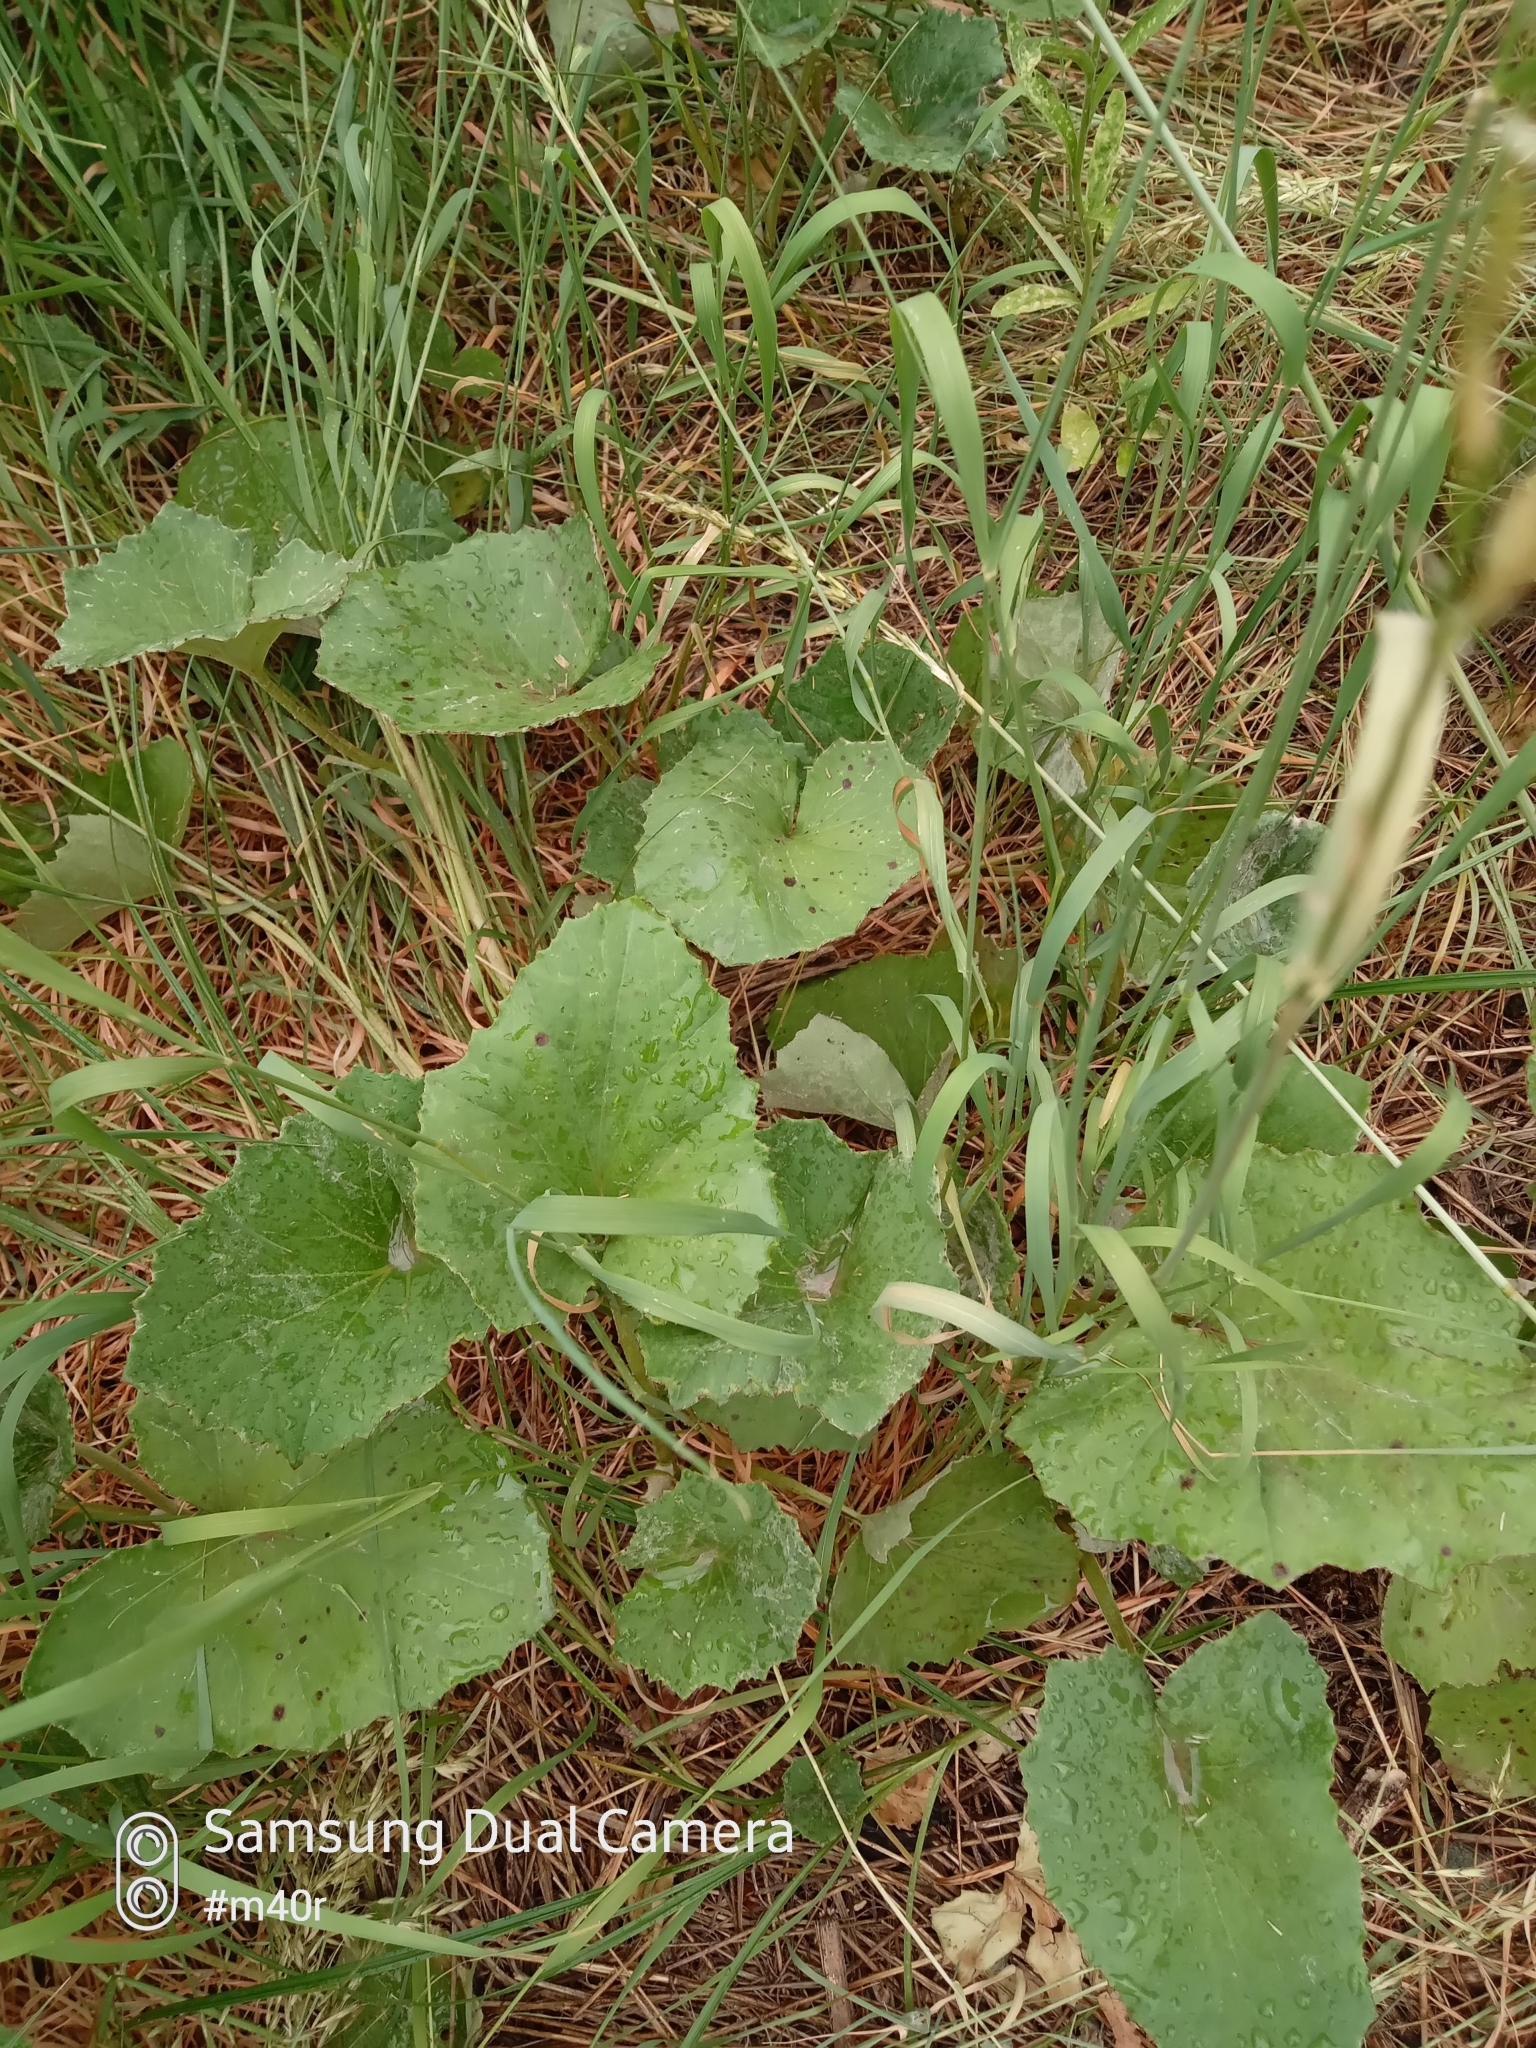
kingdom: Plantae
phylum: Tracheophyta
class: Magnoliopsida
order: Asterales
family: Asteraceae
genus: Tussilago
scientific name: Tussilago farfara
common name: Coltsfoot
